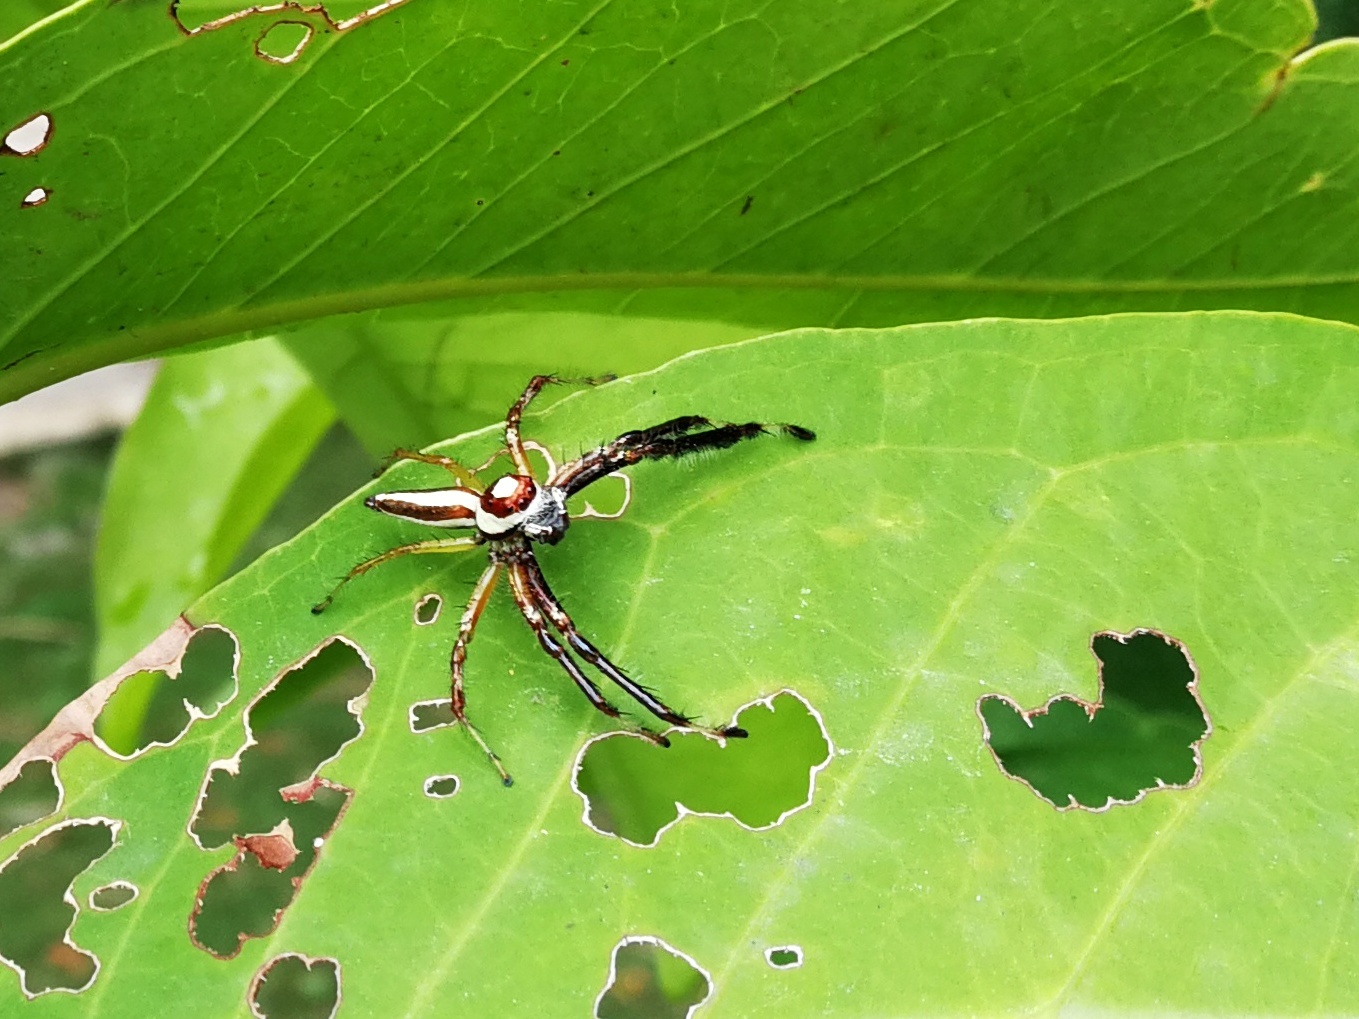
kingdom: Animalia
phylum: Arthropoda
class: Arachnida
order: Araneae
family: Salticidae
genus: Telamonia
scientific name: Telamonia dimidiata
